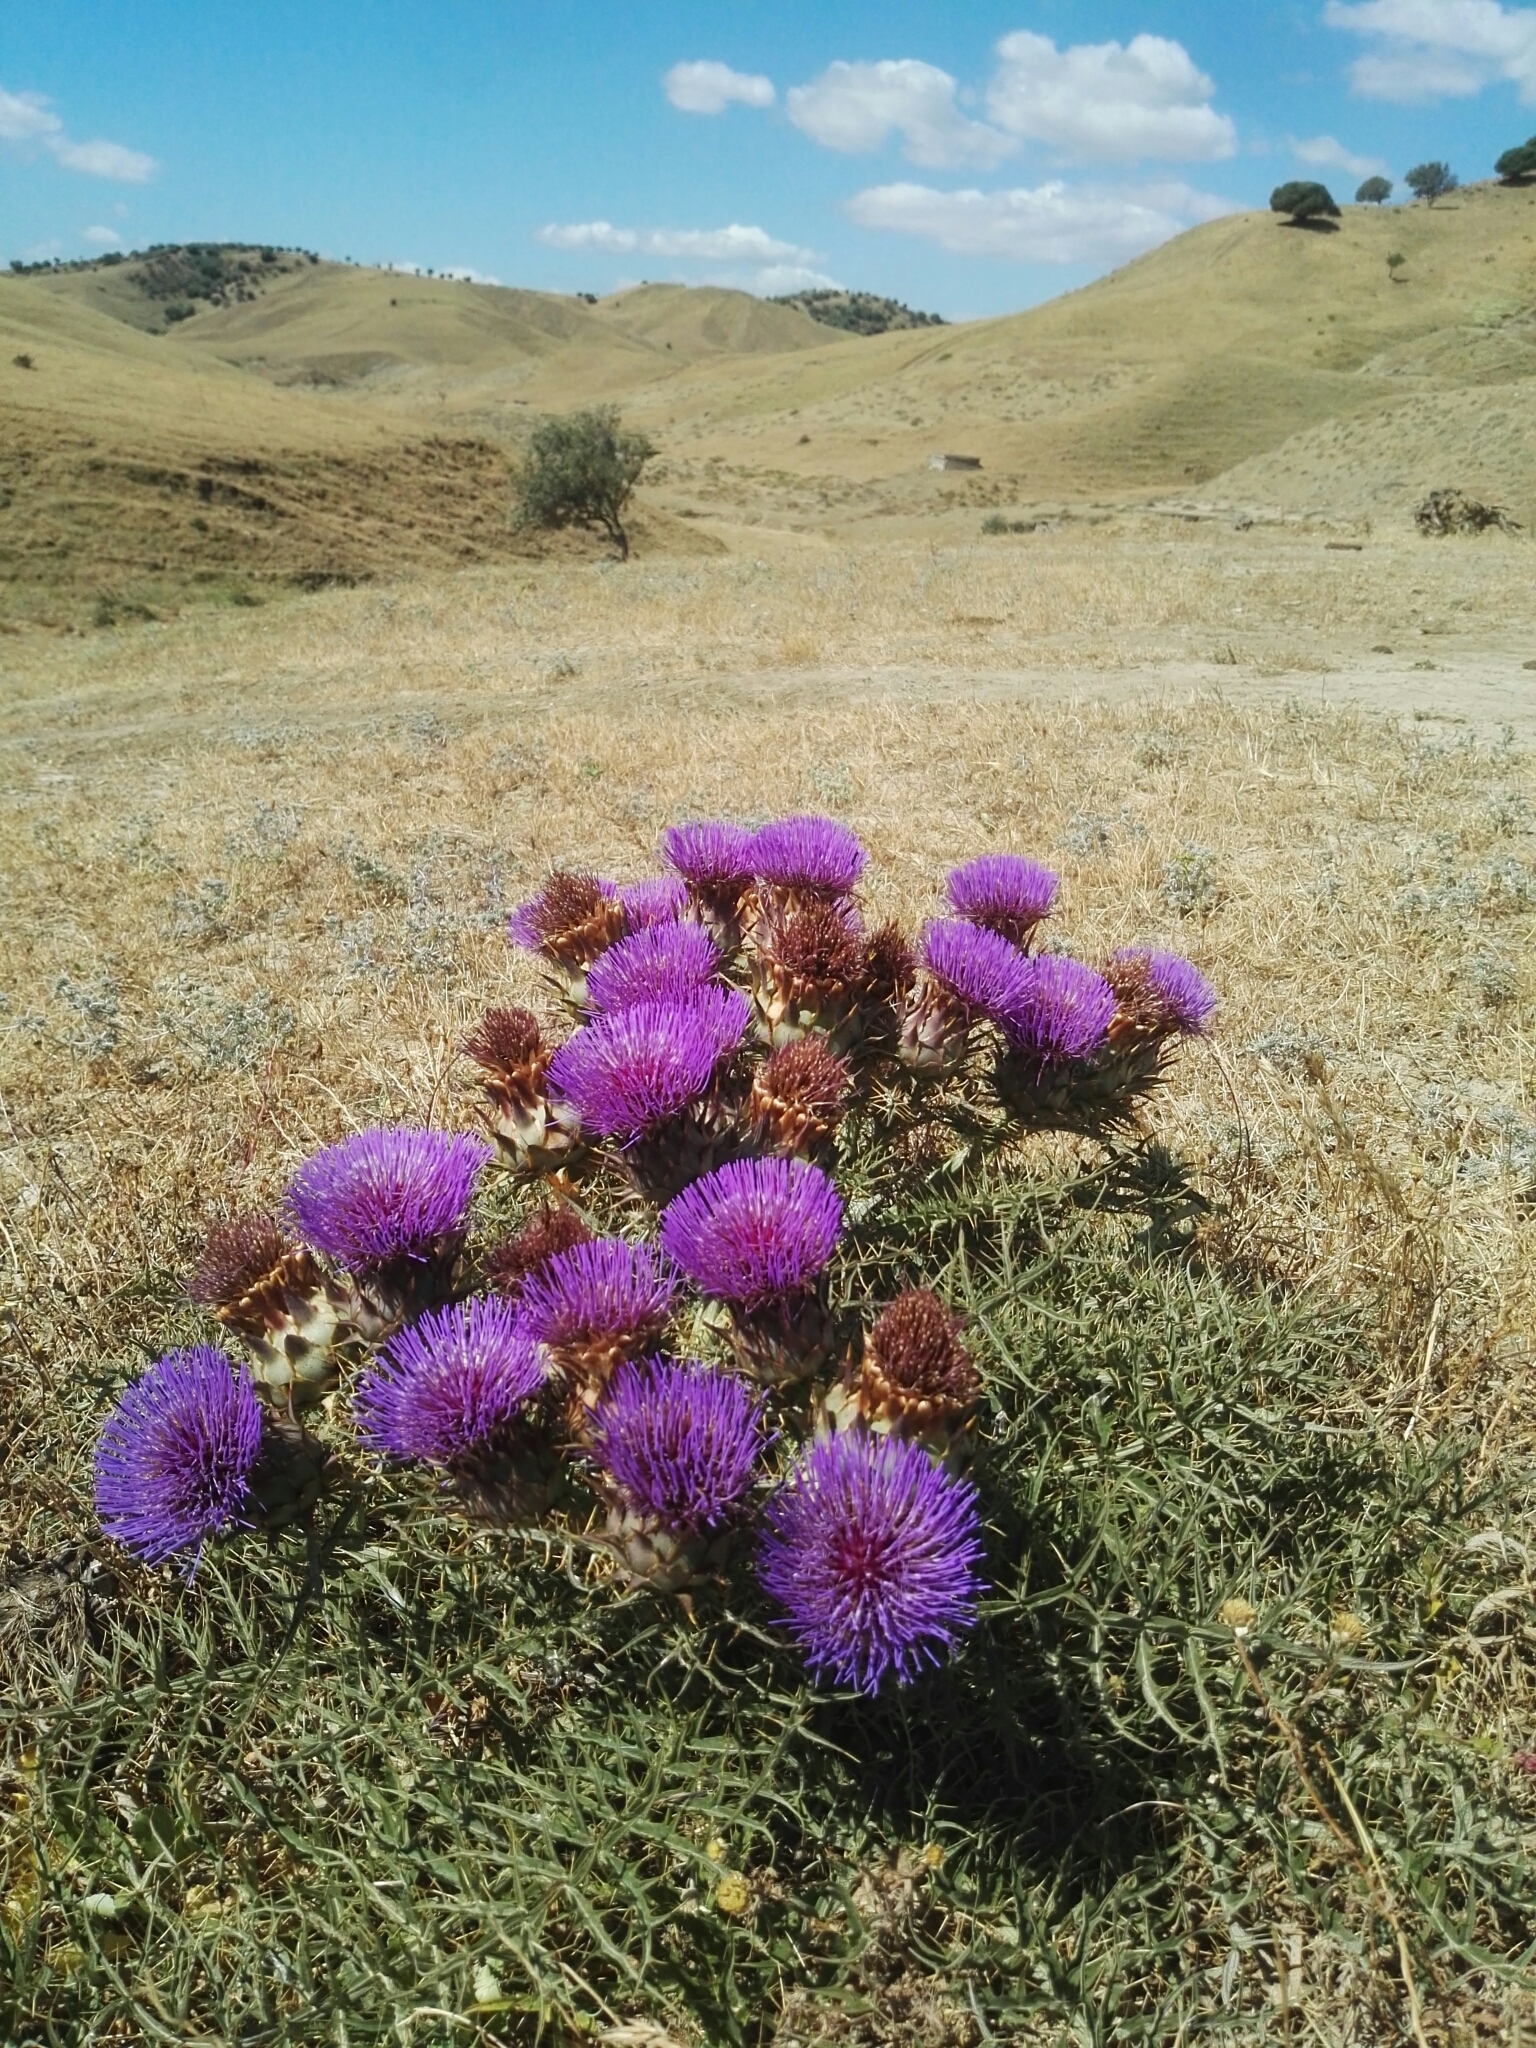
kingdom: Plantae
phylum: Tracheophyta
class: Magnoliopsida
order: Asterales
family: Asteraceae
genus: Cynara
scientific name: Cynara cardunculus
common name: Globe artichoke
